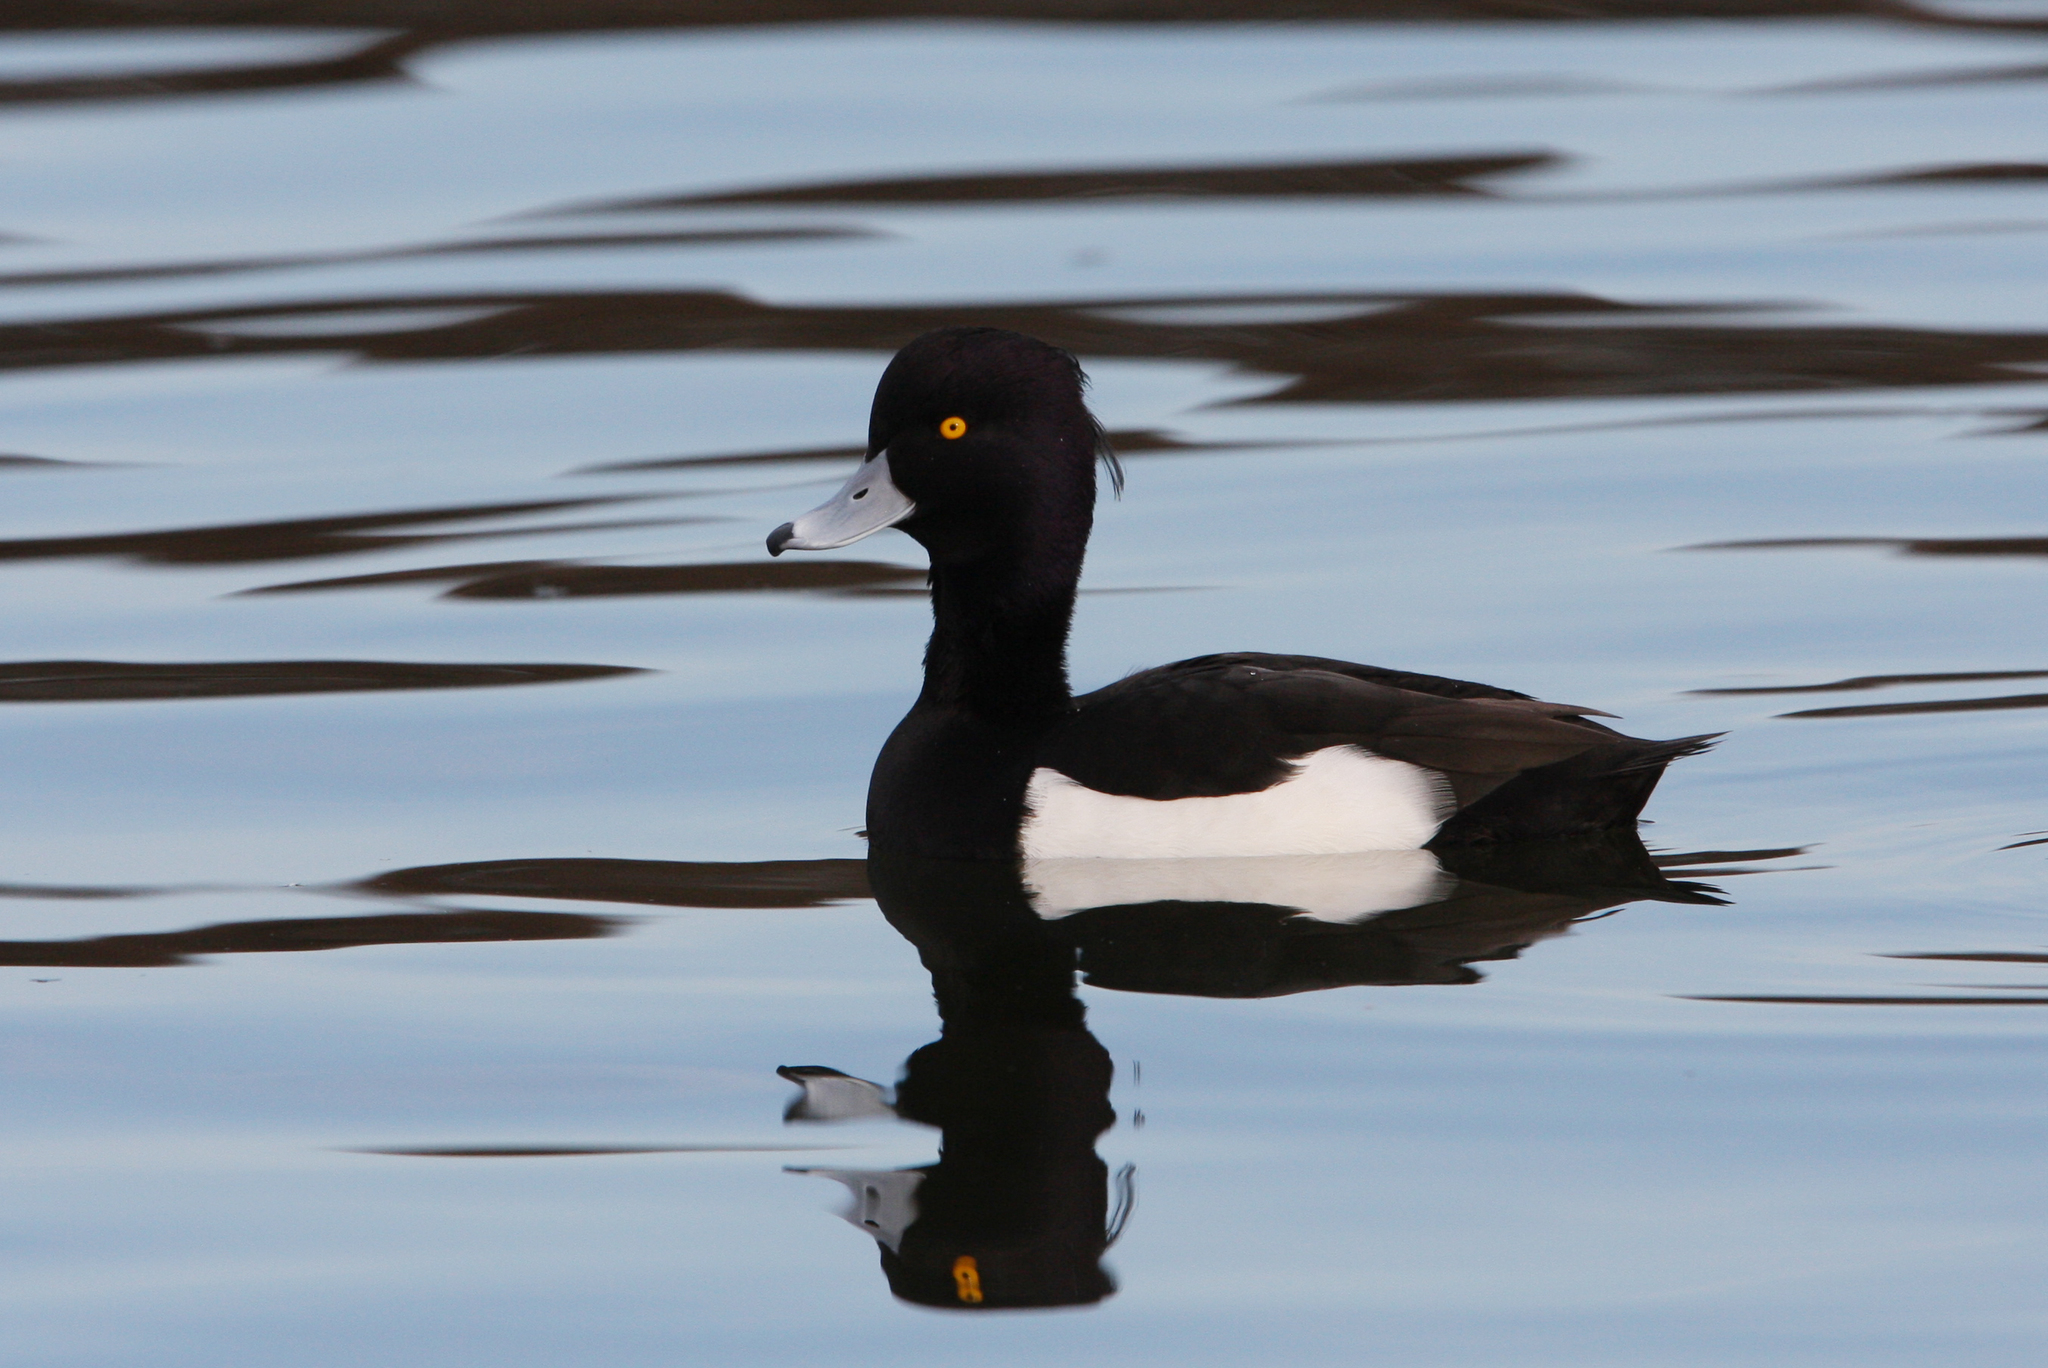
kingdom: Animalia
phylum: Chordata
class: Aves
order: Anseriformes
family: Anatidae
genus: Aythya
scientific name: Aythya fuligula
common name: Tufted duck
